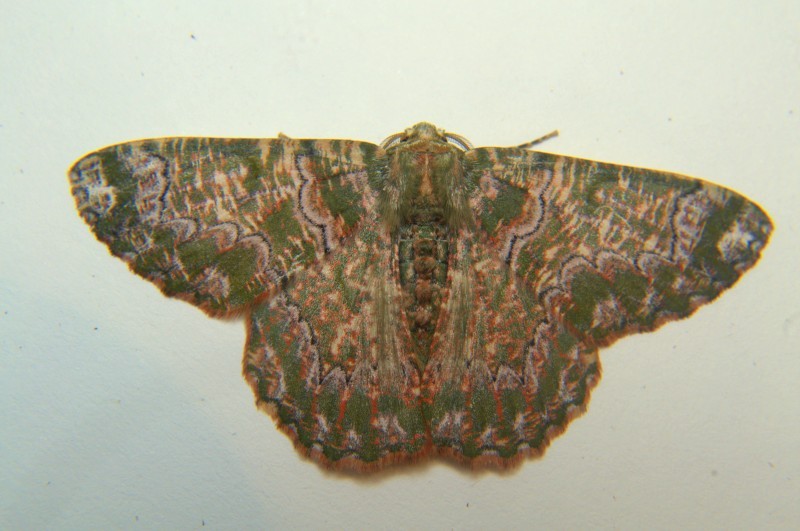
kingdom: Animalia
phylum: Arthropoda
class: Insecta
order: Lepidoptera
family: Geometridae
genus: Lophophelma
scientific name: Lophophelma varicoloraria
